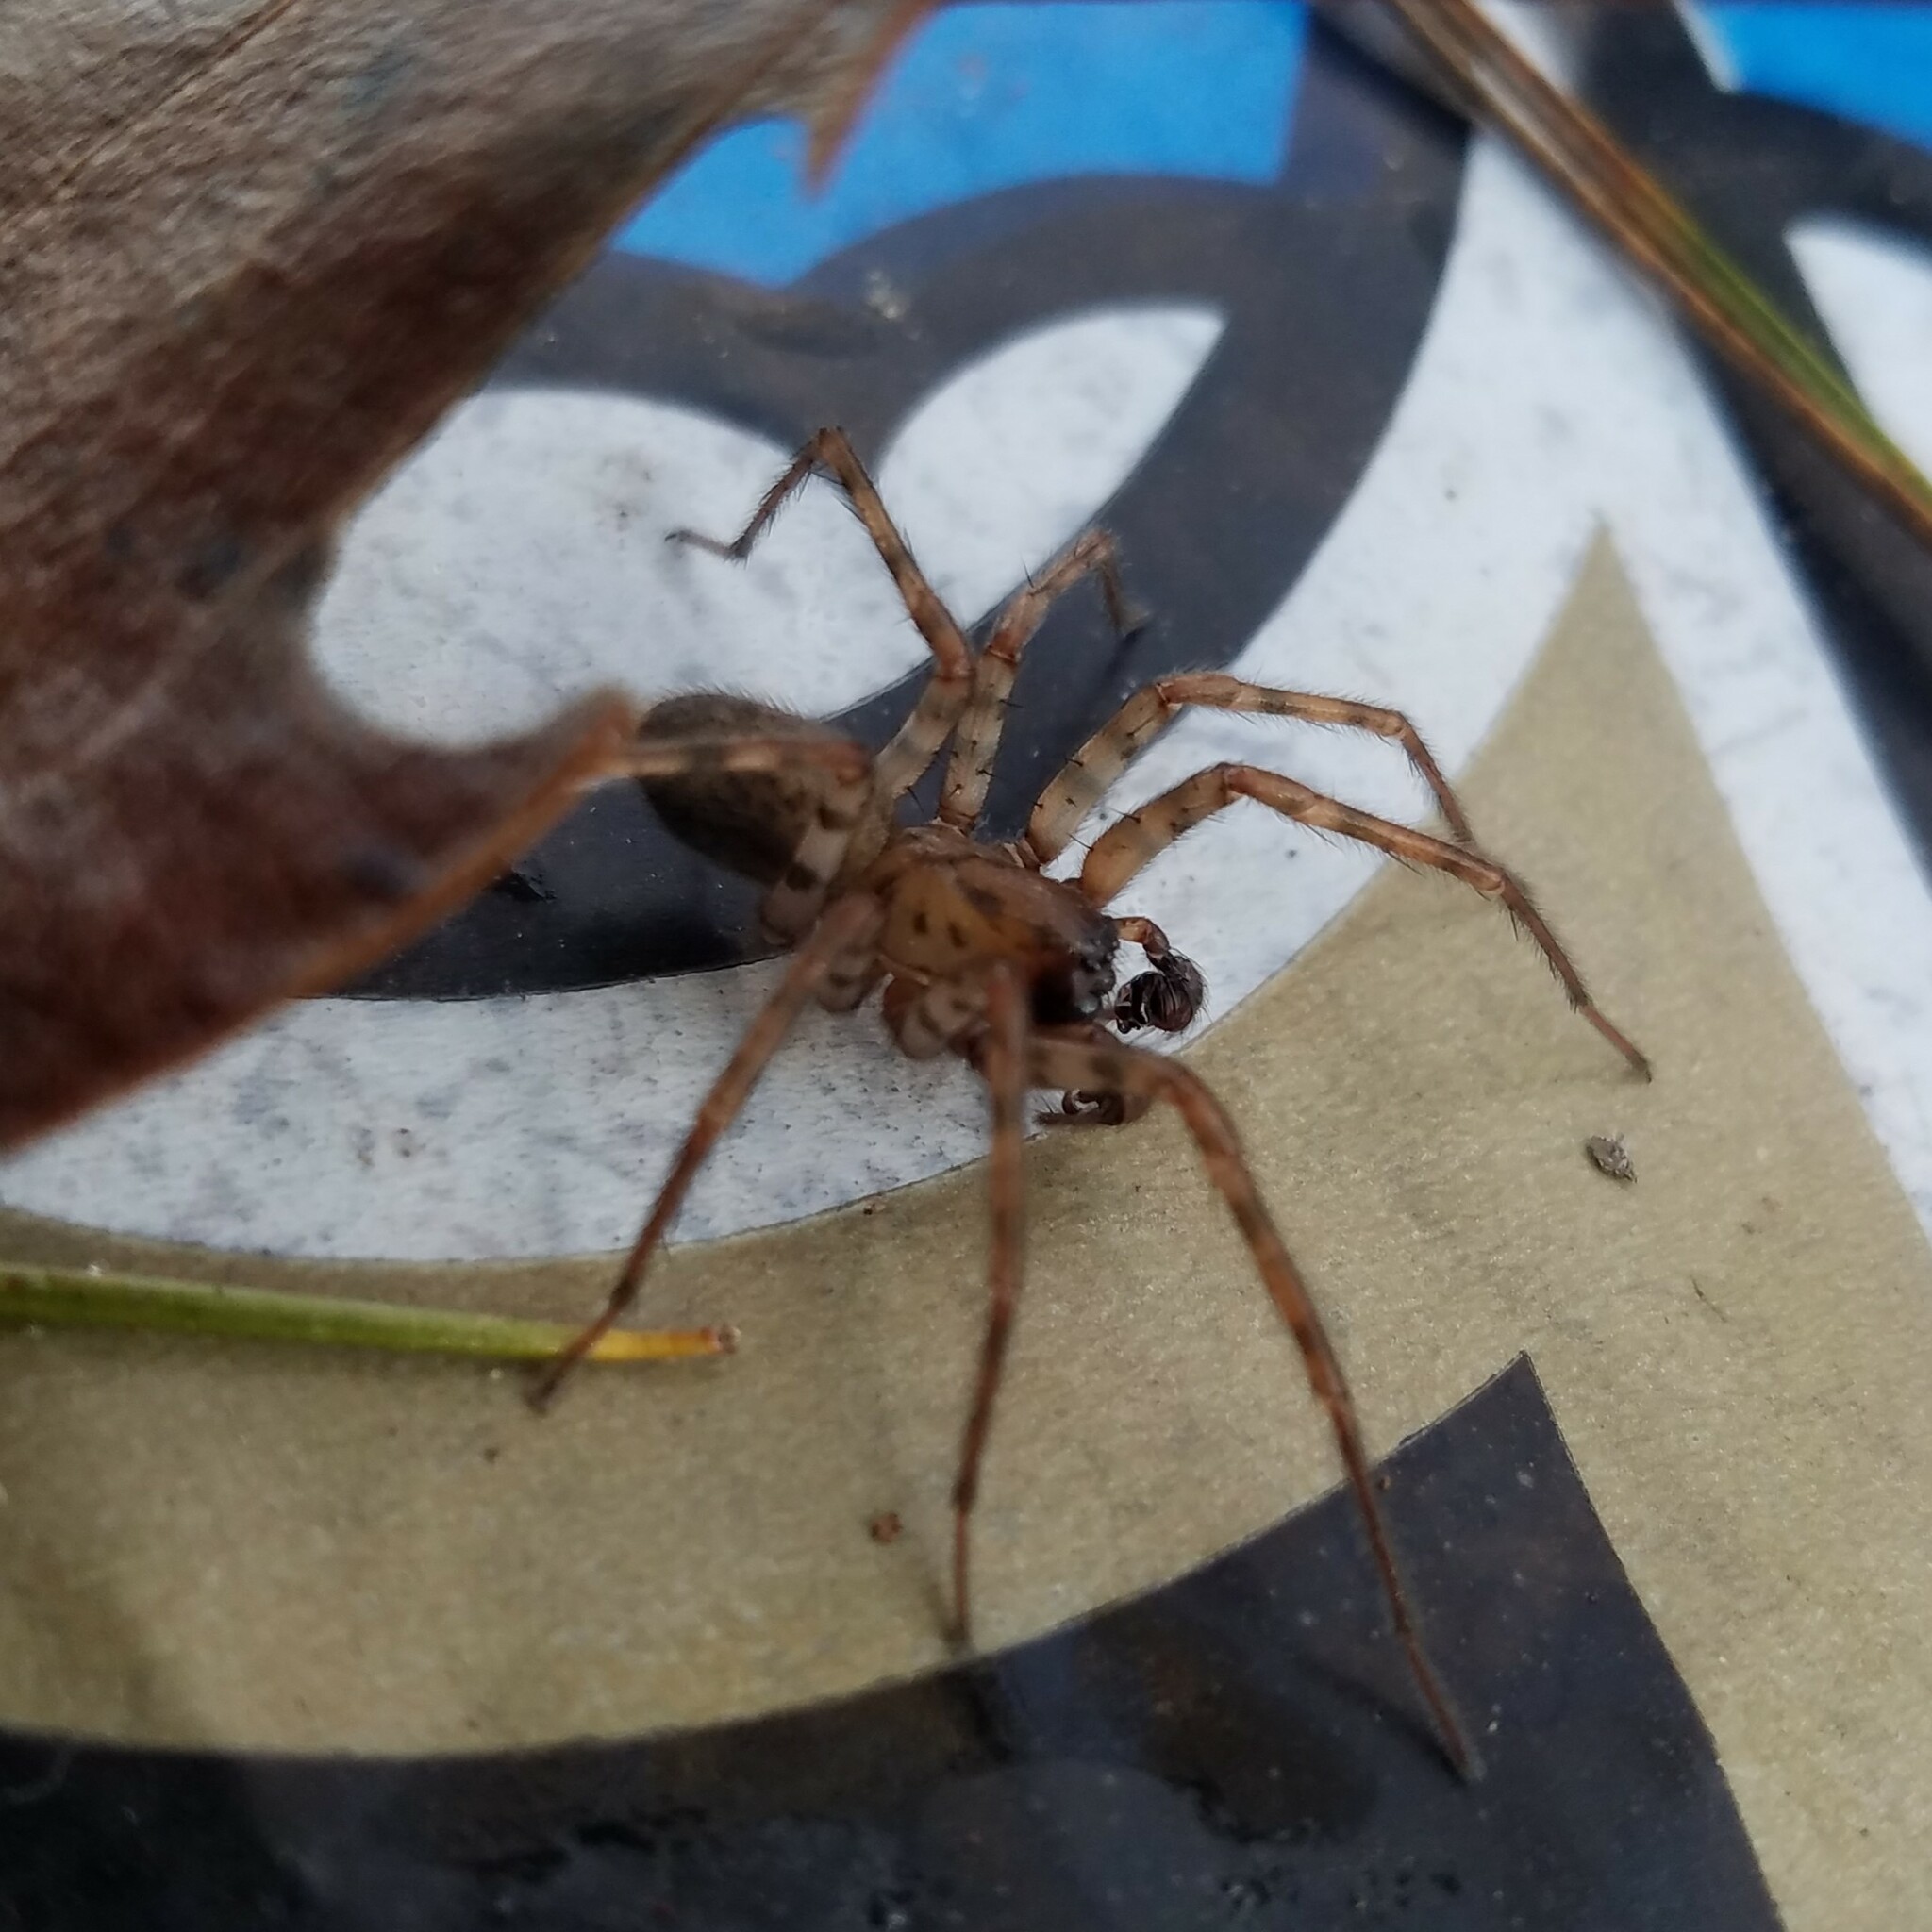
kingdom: Animalia
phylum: Arthropoda
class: Arachnida
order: Araneae
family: Agelenidae
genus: Coras
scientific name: Coras
